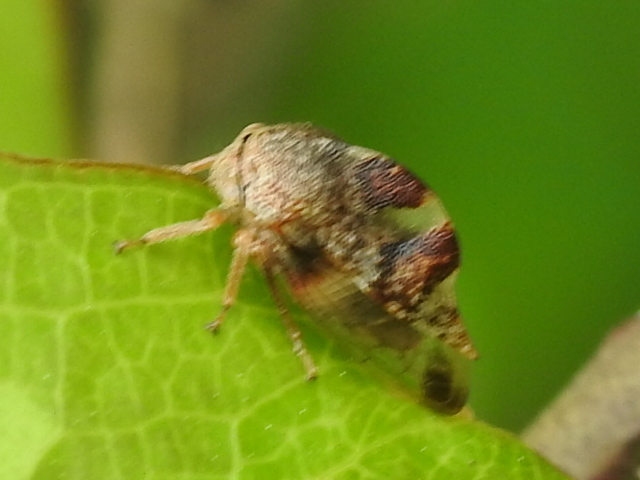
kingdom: Animalia
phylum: Arthropoda
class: Insecta
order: Hemiptera
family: Membracidae
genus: Cyrtolobus
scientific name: Cyrtolobus tuberosa
